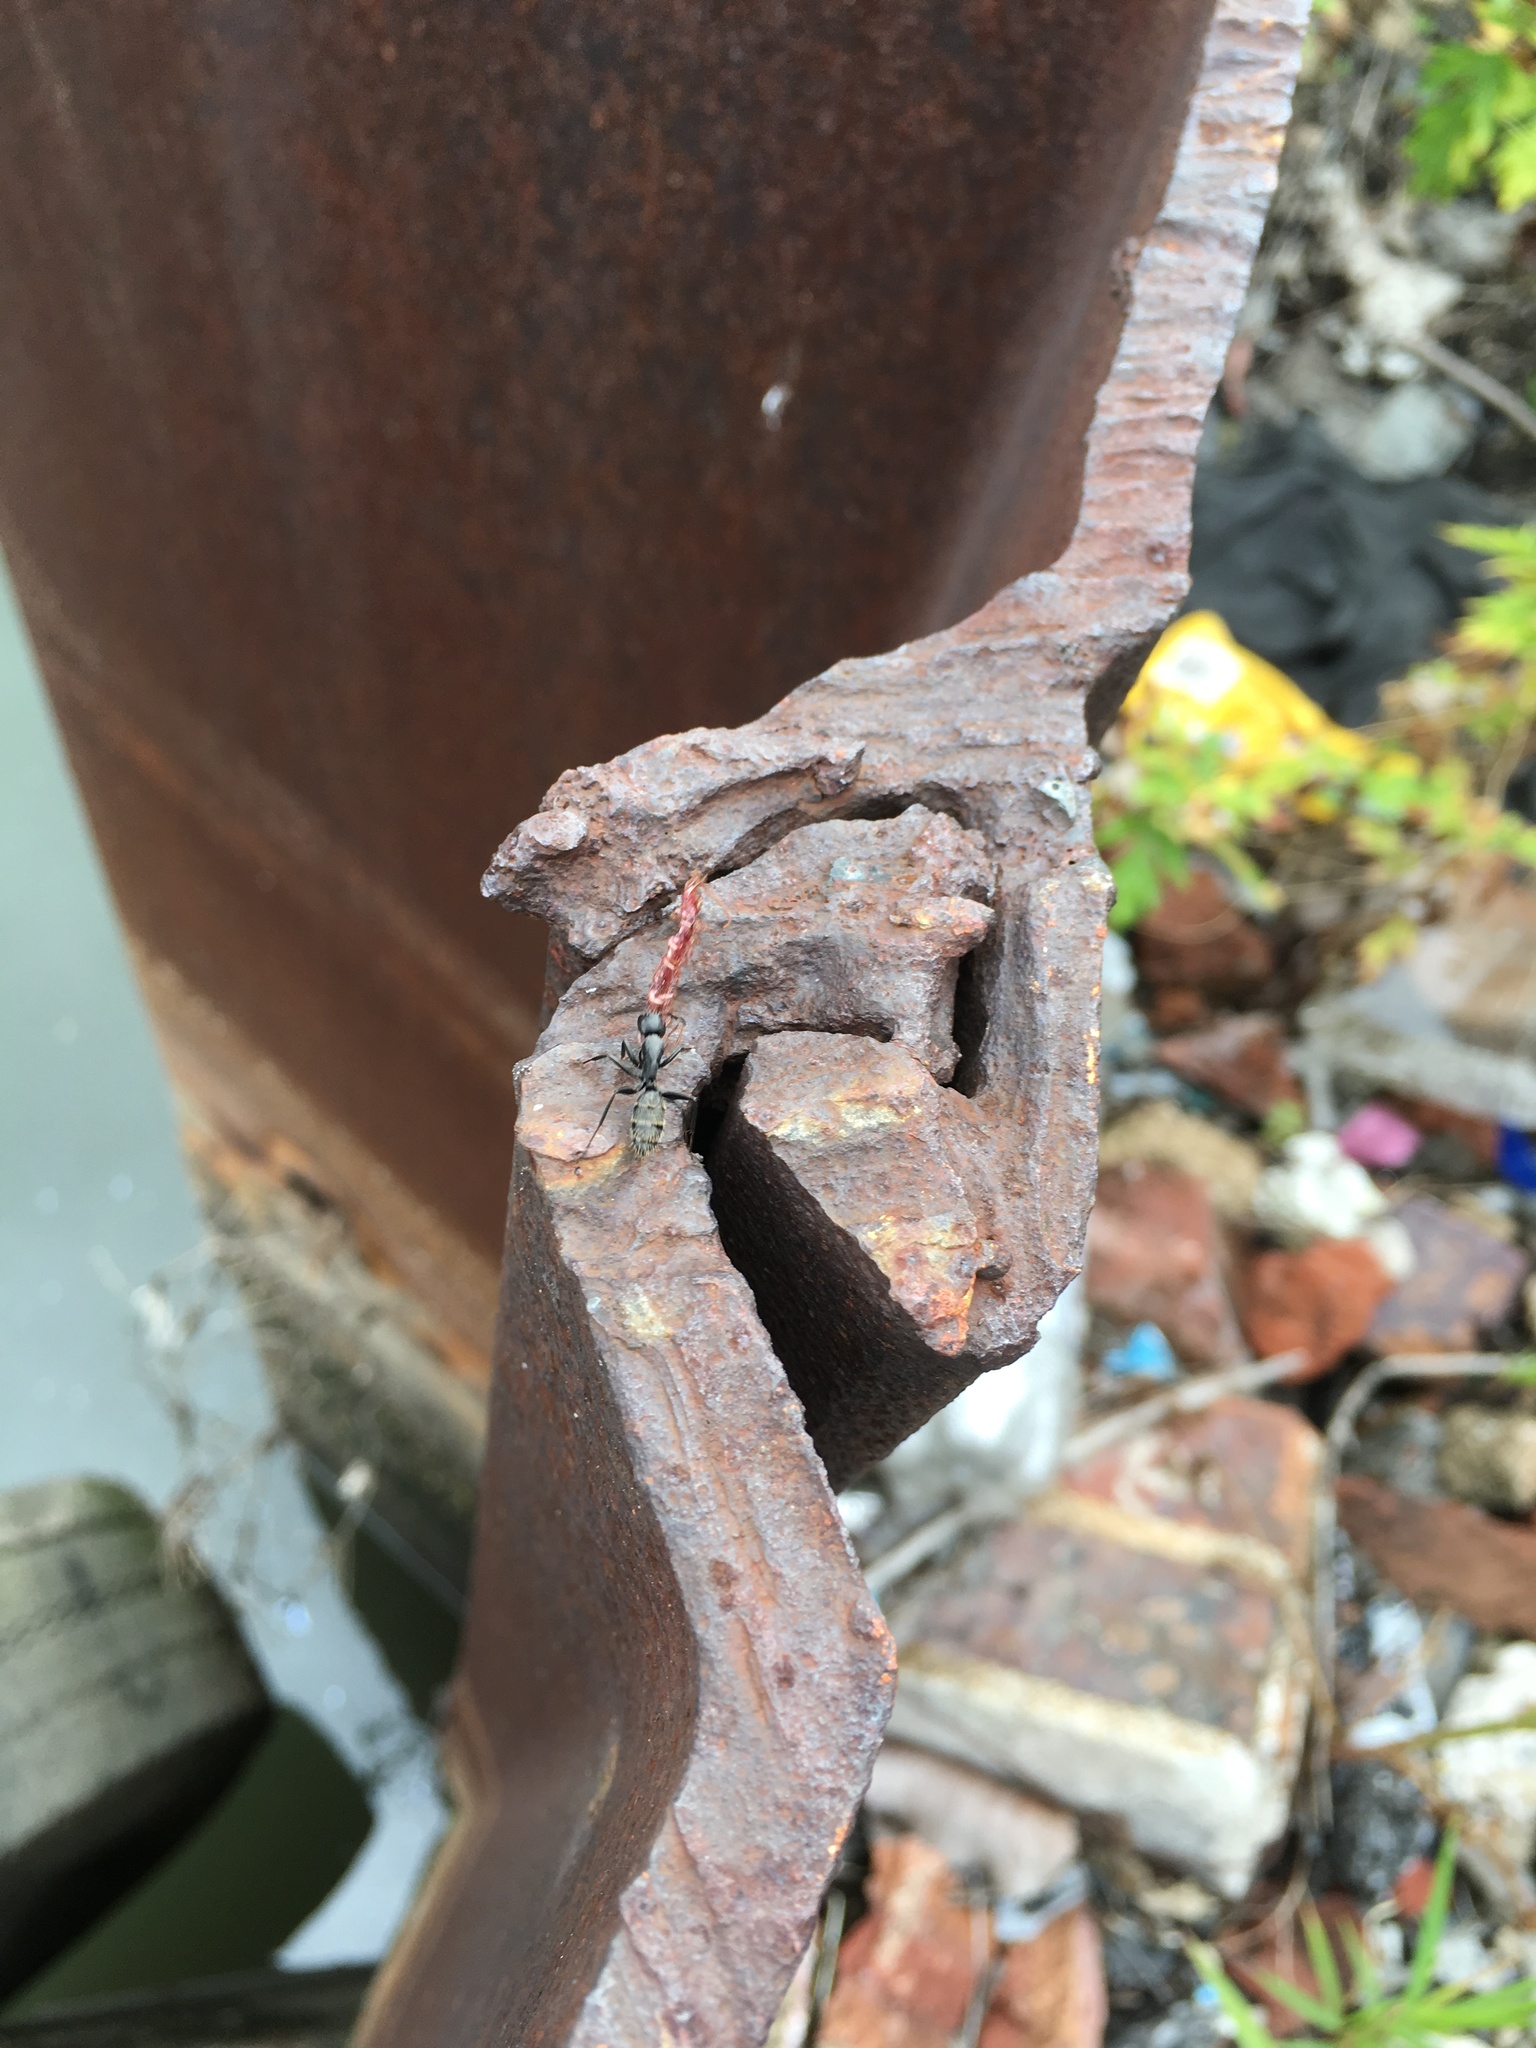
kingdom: Animalia
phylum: Arthropoda
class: Insecta
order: Hymenoptera
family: Formicidae
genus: Camponotus
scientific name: Camponotus pennsylvanicus
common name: Black carpenter ant
